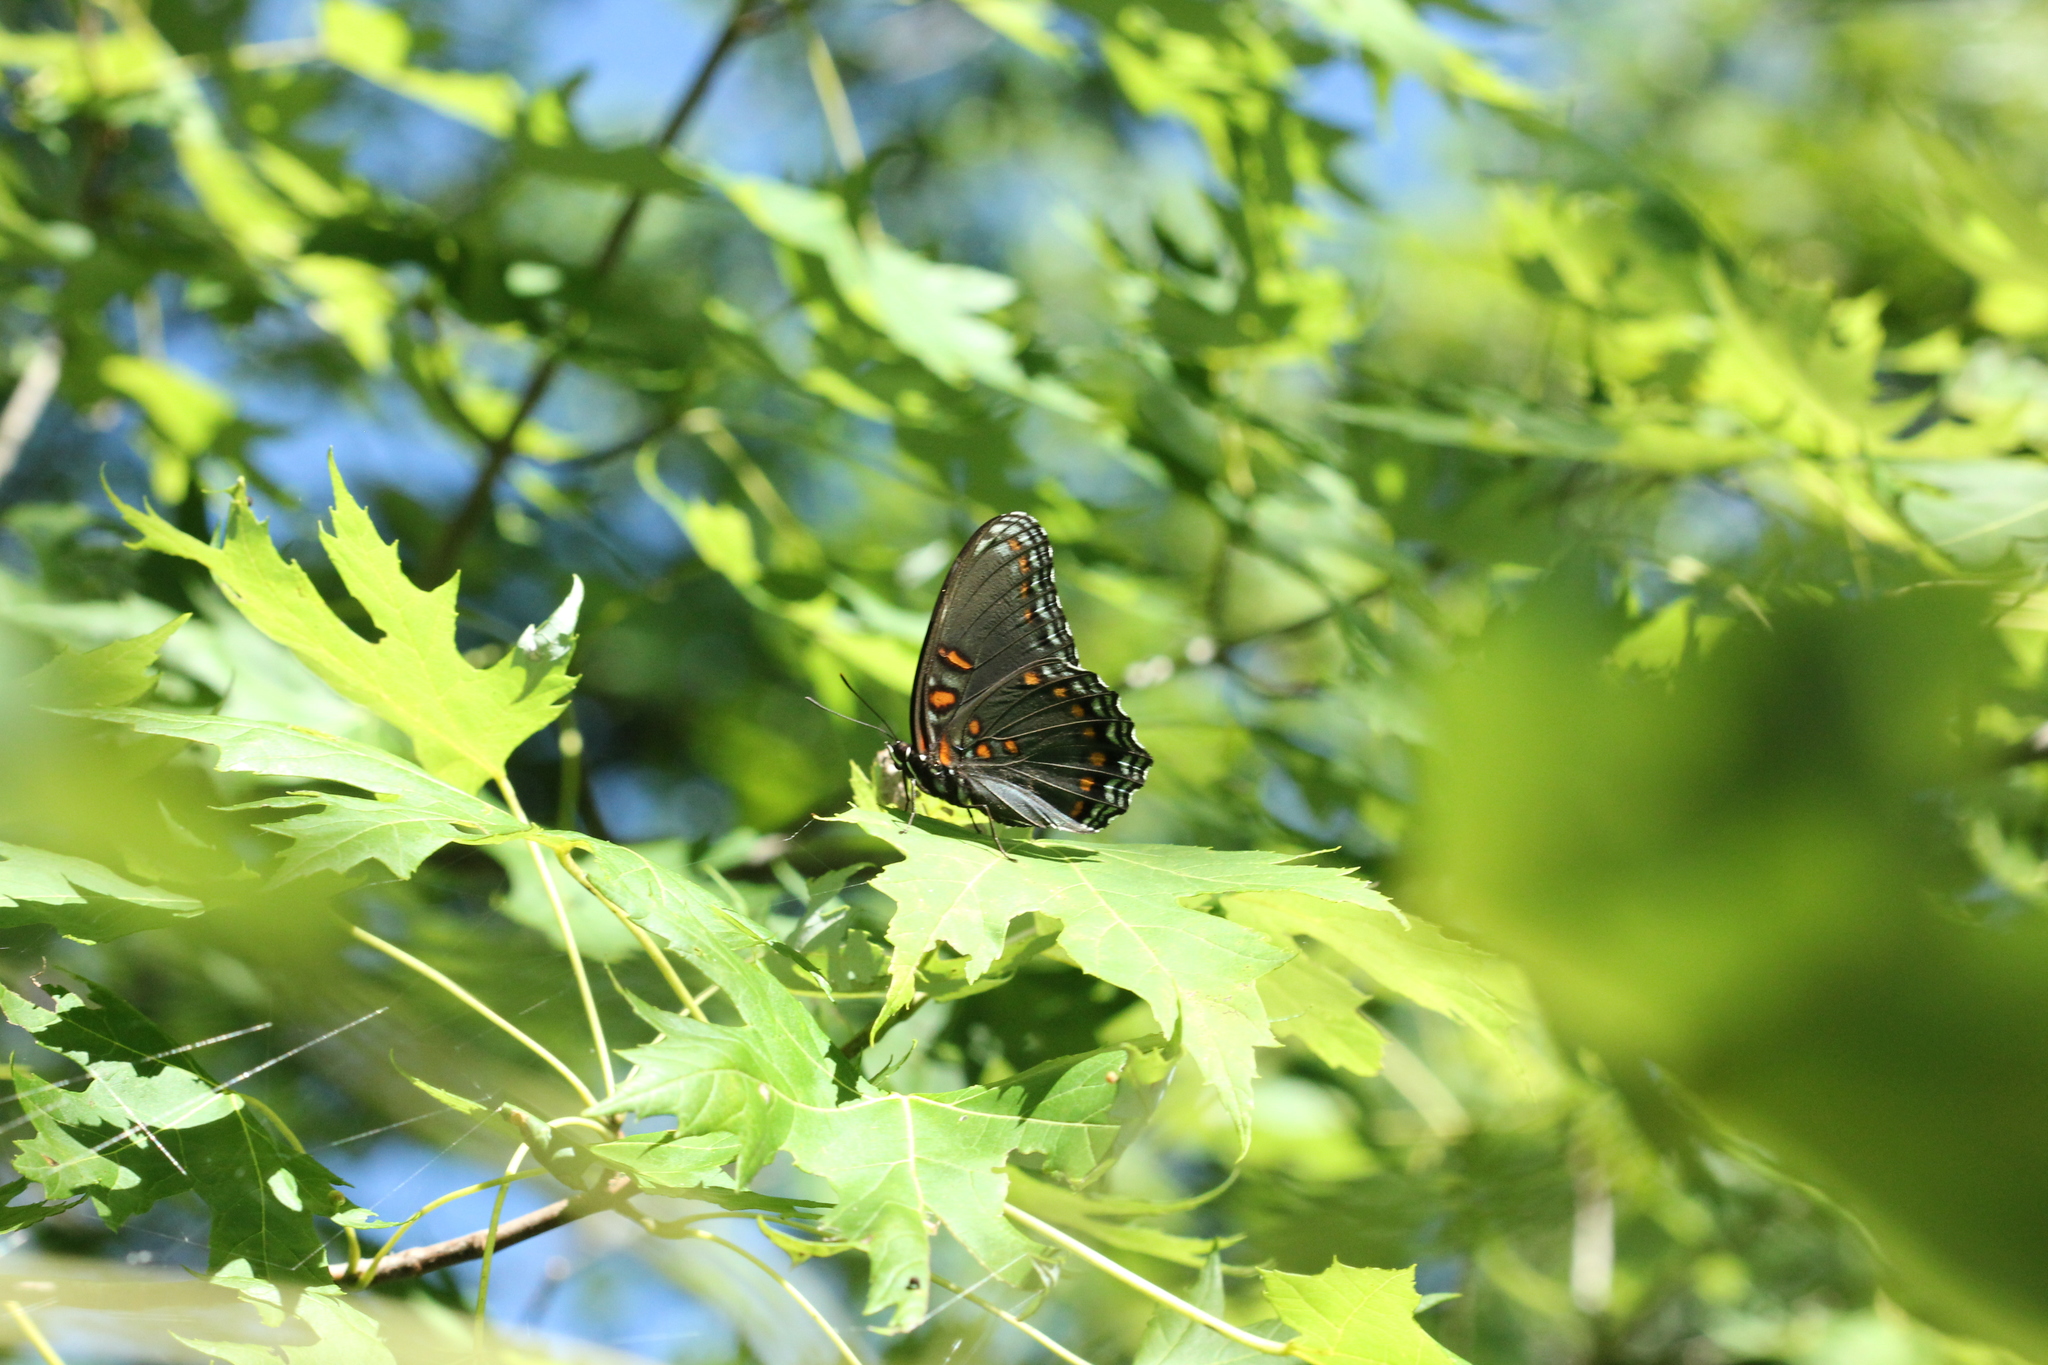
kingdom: Animalia
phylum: Arthropoda
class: Insecta
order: Lepidoptera
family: Nymphalidae
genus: Limenitis
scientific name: Limenitis astyanax
